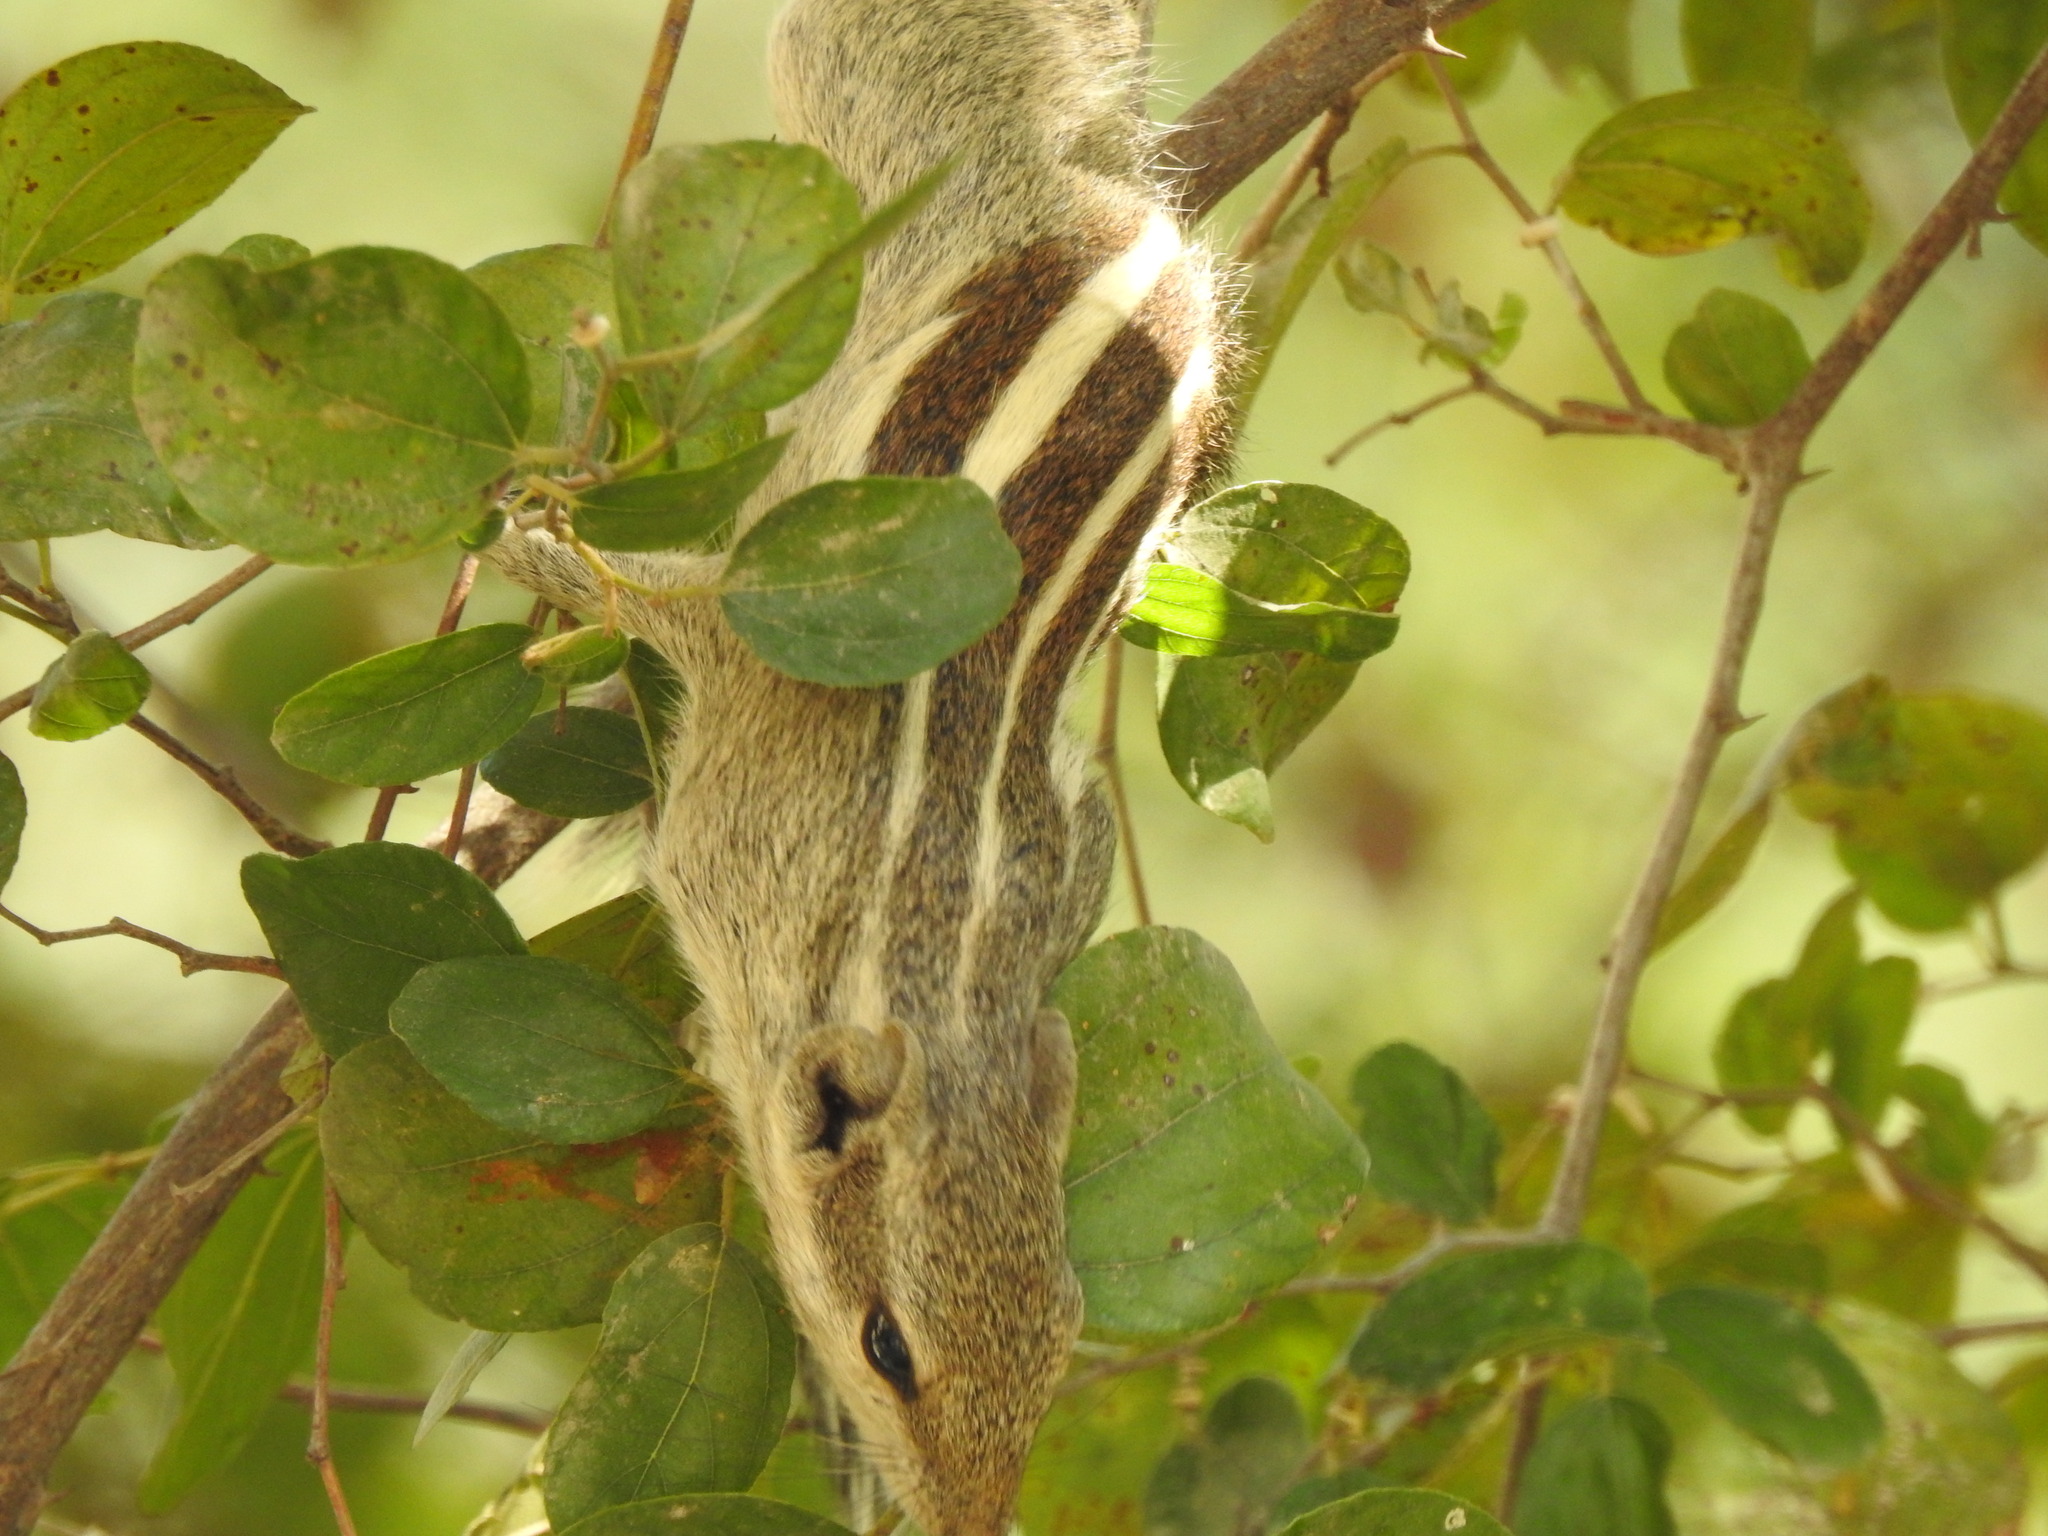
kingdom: Animalia
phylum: Chordata
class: Mammalia
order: Rodentia
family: Sciuridae
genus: Funambulus
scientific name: Funambulus pennantii
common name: Northern palm squirrel
